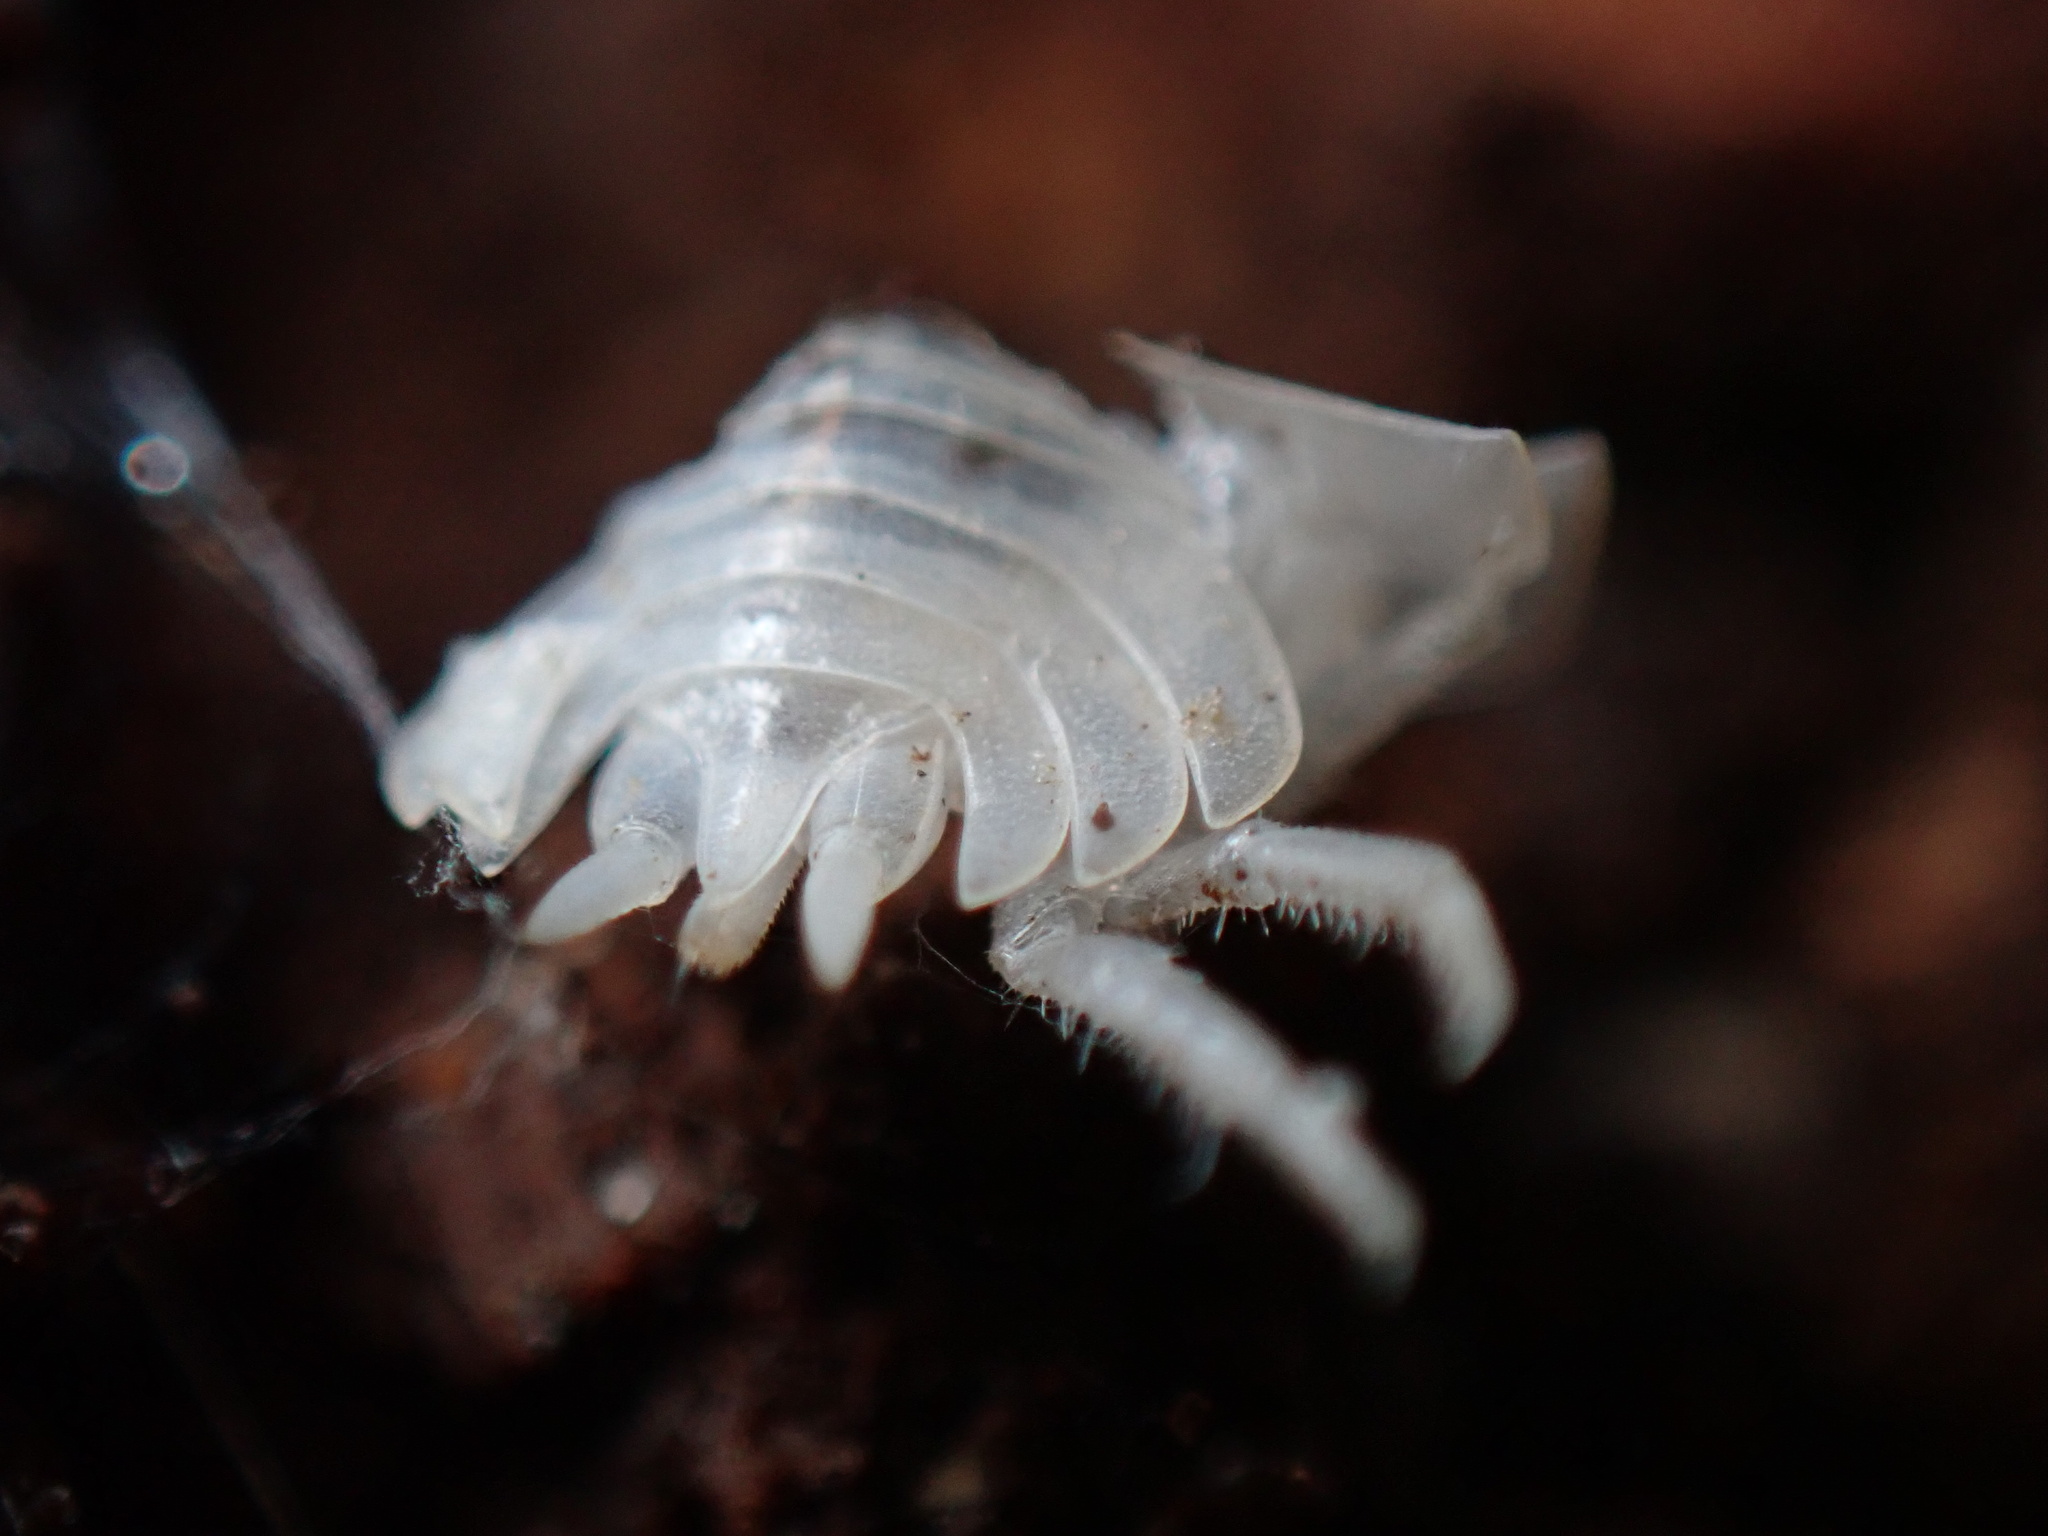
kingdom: Animalia
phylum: Arthropoda
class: Malacostraca
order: Isopoda
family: Oniscidae
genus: Oniscus
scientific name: Oniscus asellus
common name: Common shiny woodlouse
